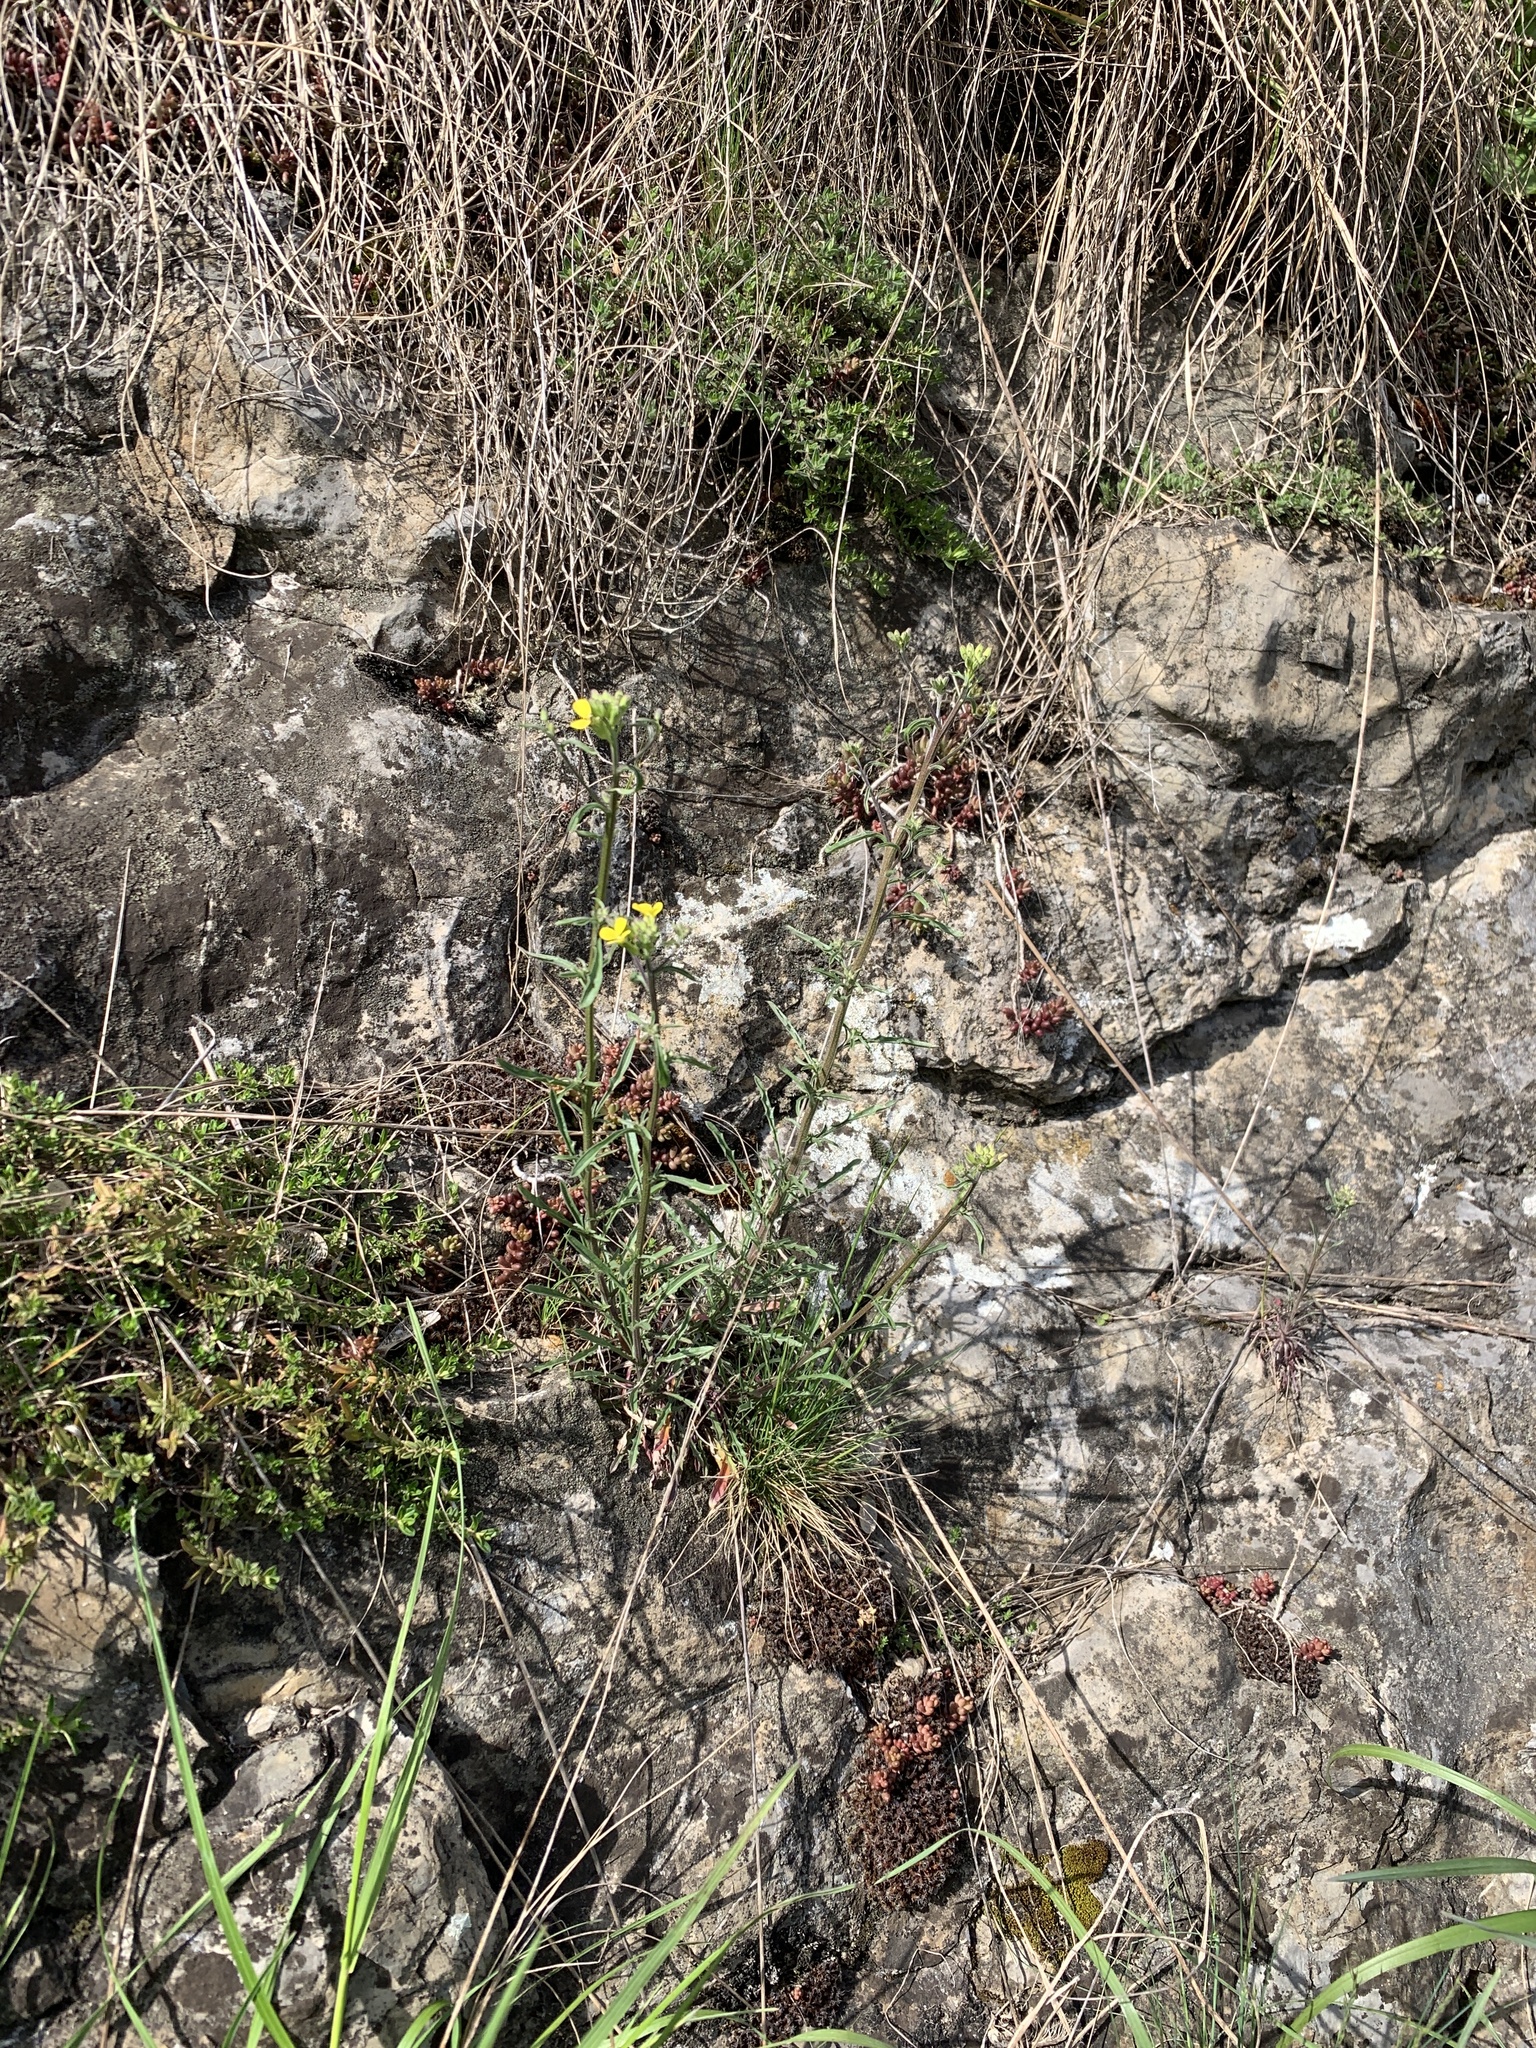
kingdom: Plantae
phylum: Tracheophyta
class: Magnoliopsida
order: Brassicales
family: Brassicaceae
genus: Erysimum
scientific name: Erysimum crepidifolium
